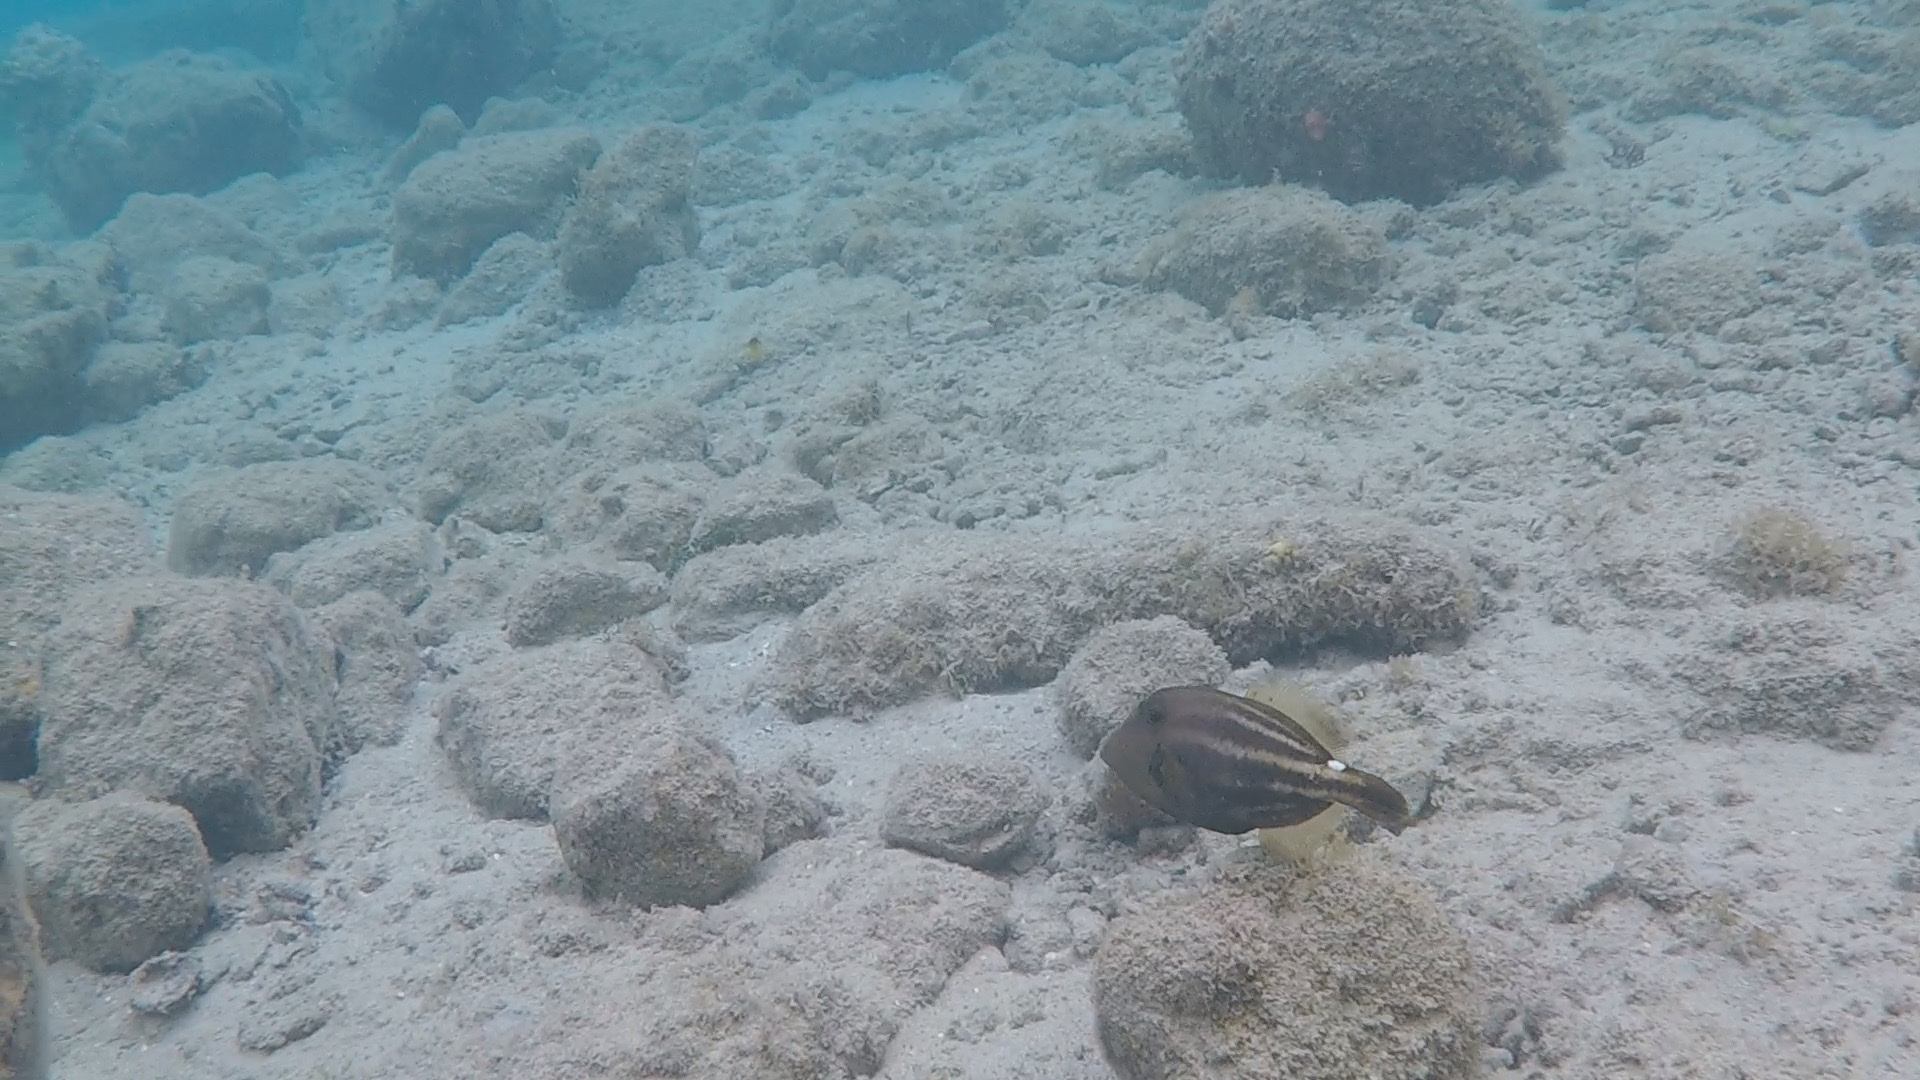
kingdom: Animalia
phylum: Chordata
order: Tetraodontiformes
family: Monacanthidae
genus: Cantherhines
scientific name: Cantherhines pullus
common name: Orangespotted filefish
